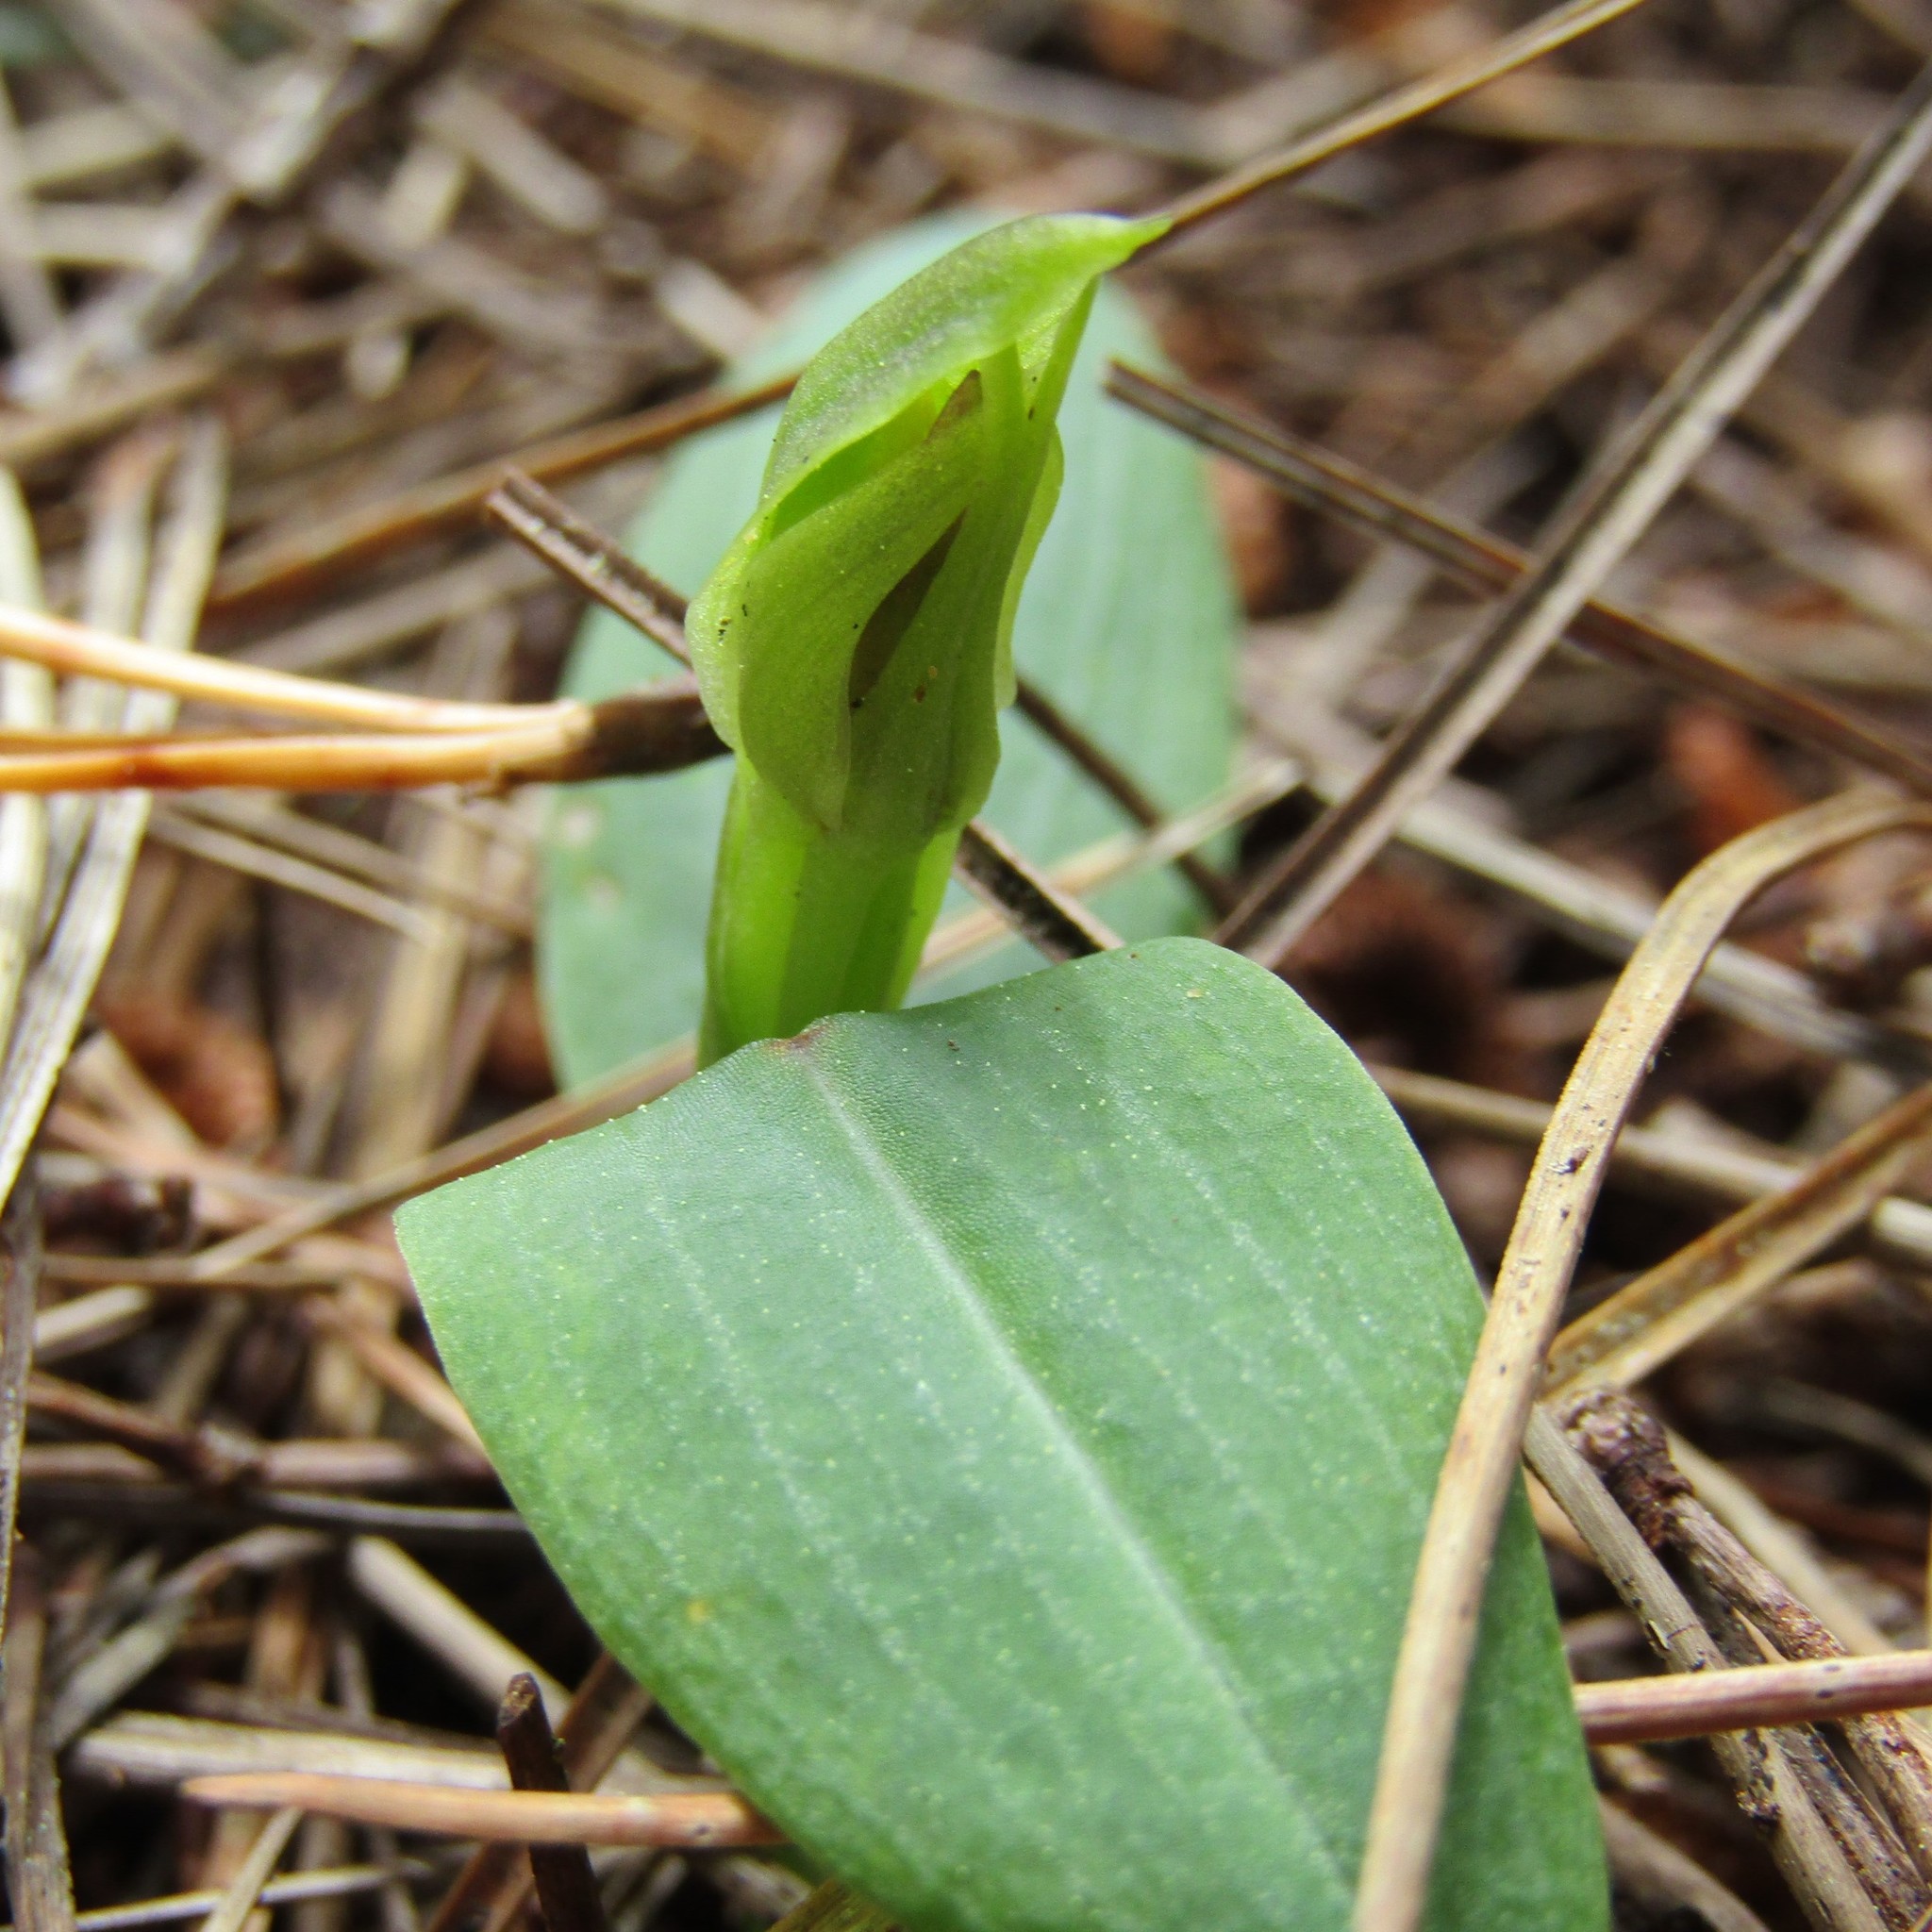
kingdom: Plantae
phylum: Tracheophyta
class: Liliopsida
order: Asparagales
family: Orchidaceae
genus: Chiloglottis
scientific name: Chiloglottis cornuta
